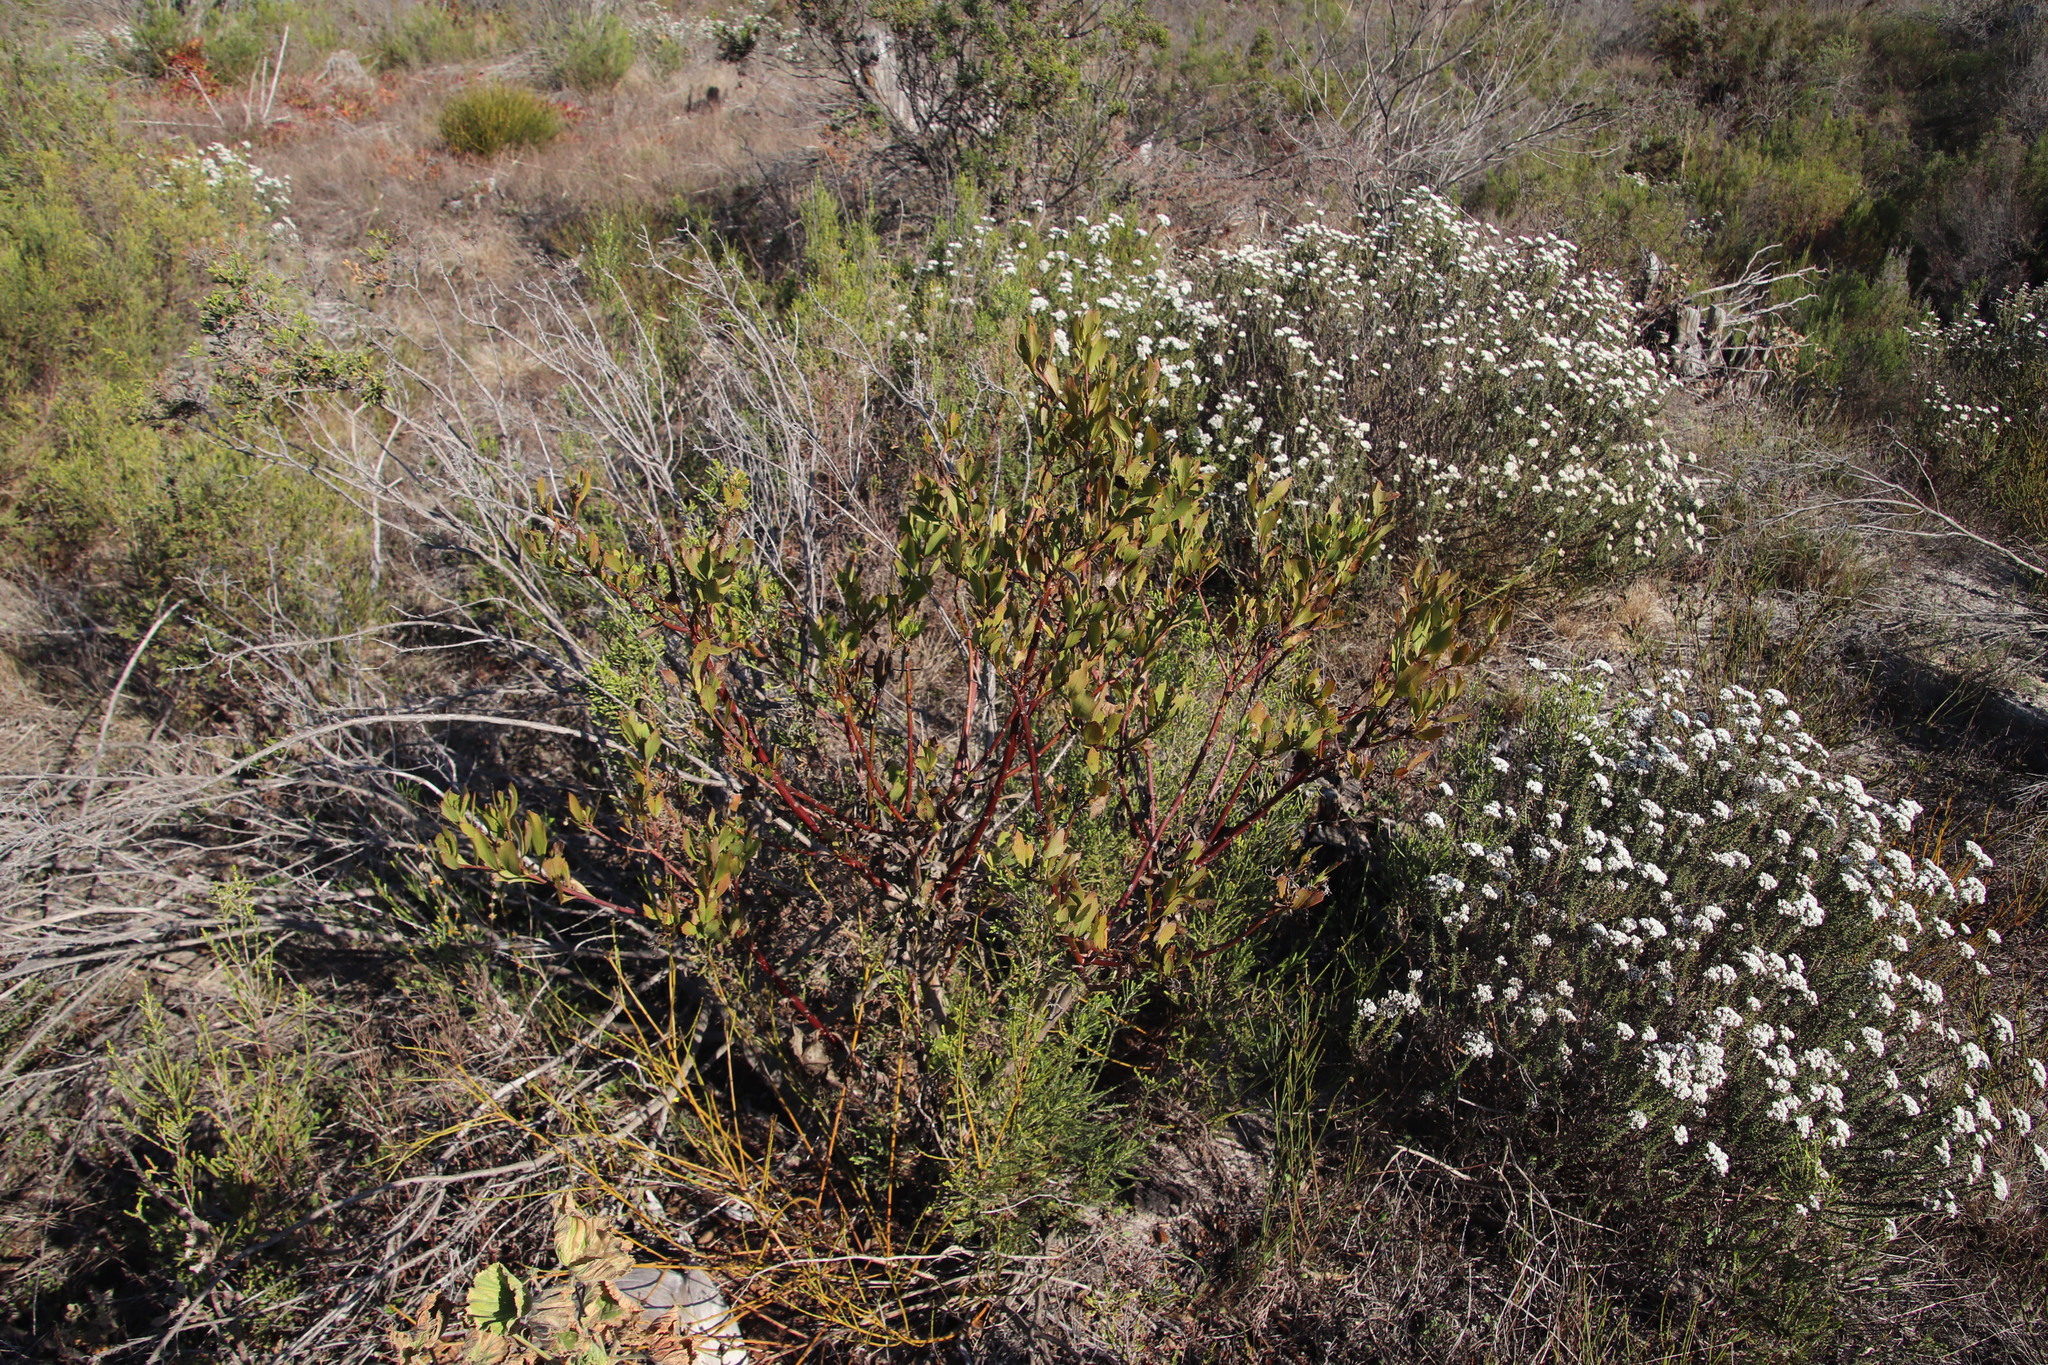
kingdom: Plantae
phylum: Tracheophyta
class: Magnoliopsida
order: Asterales
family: Asteraceae
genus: Osteospermum
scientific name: Osteospermum moniliferum
